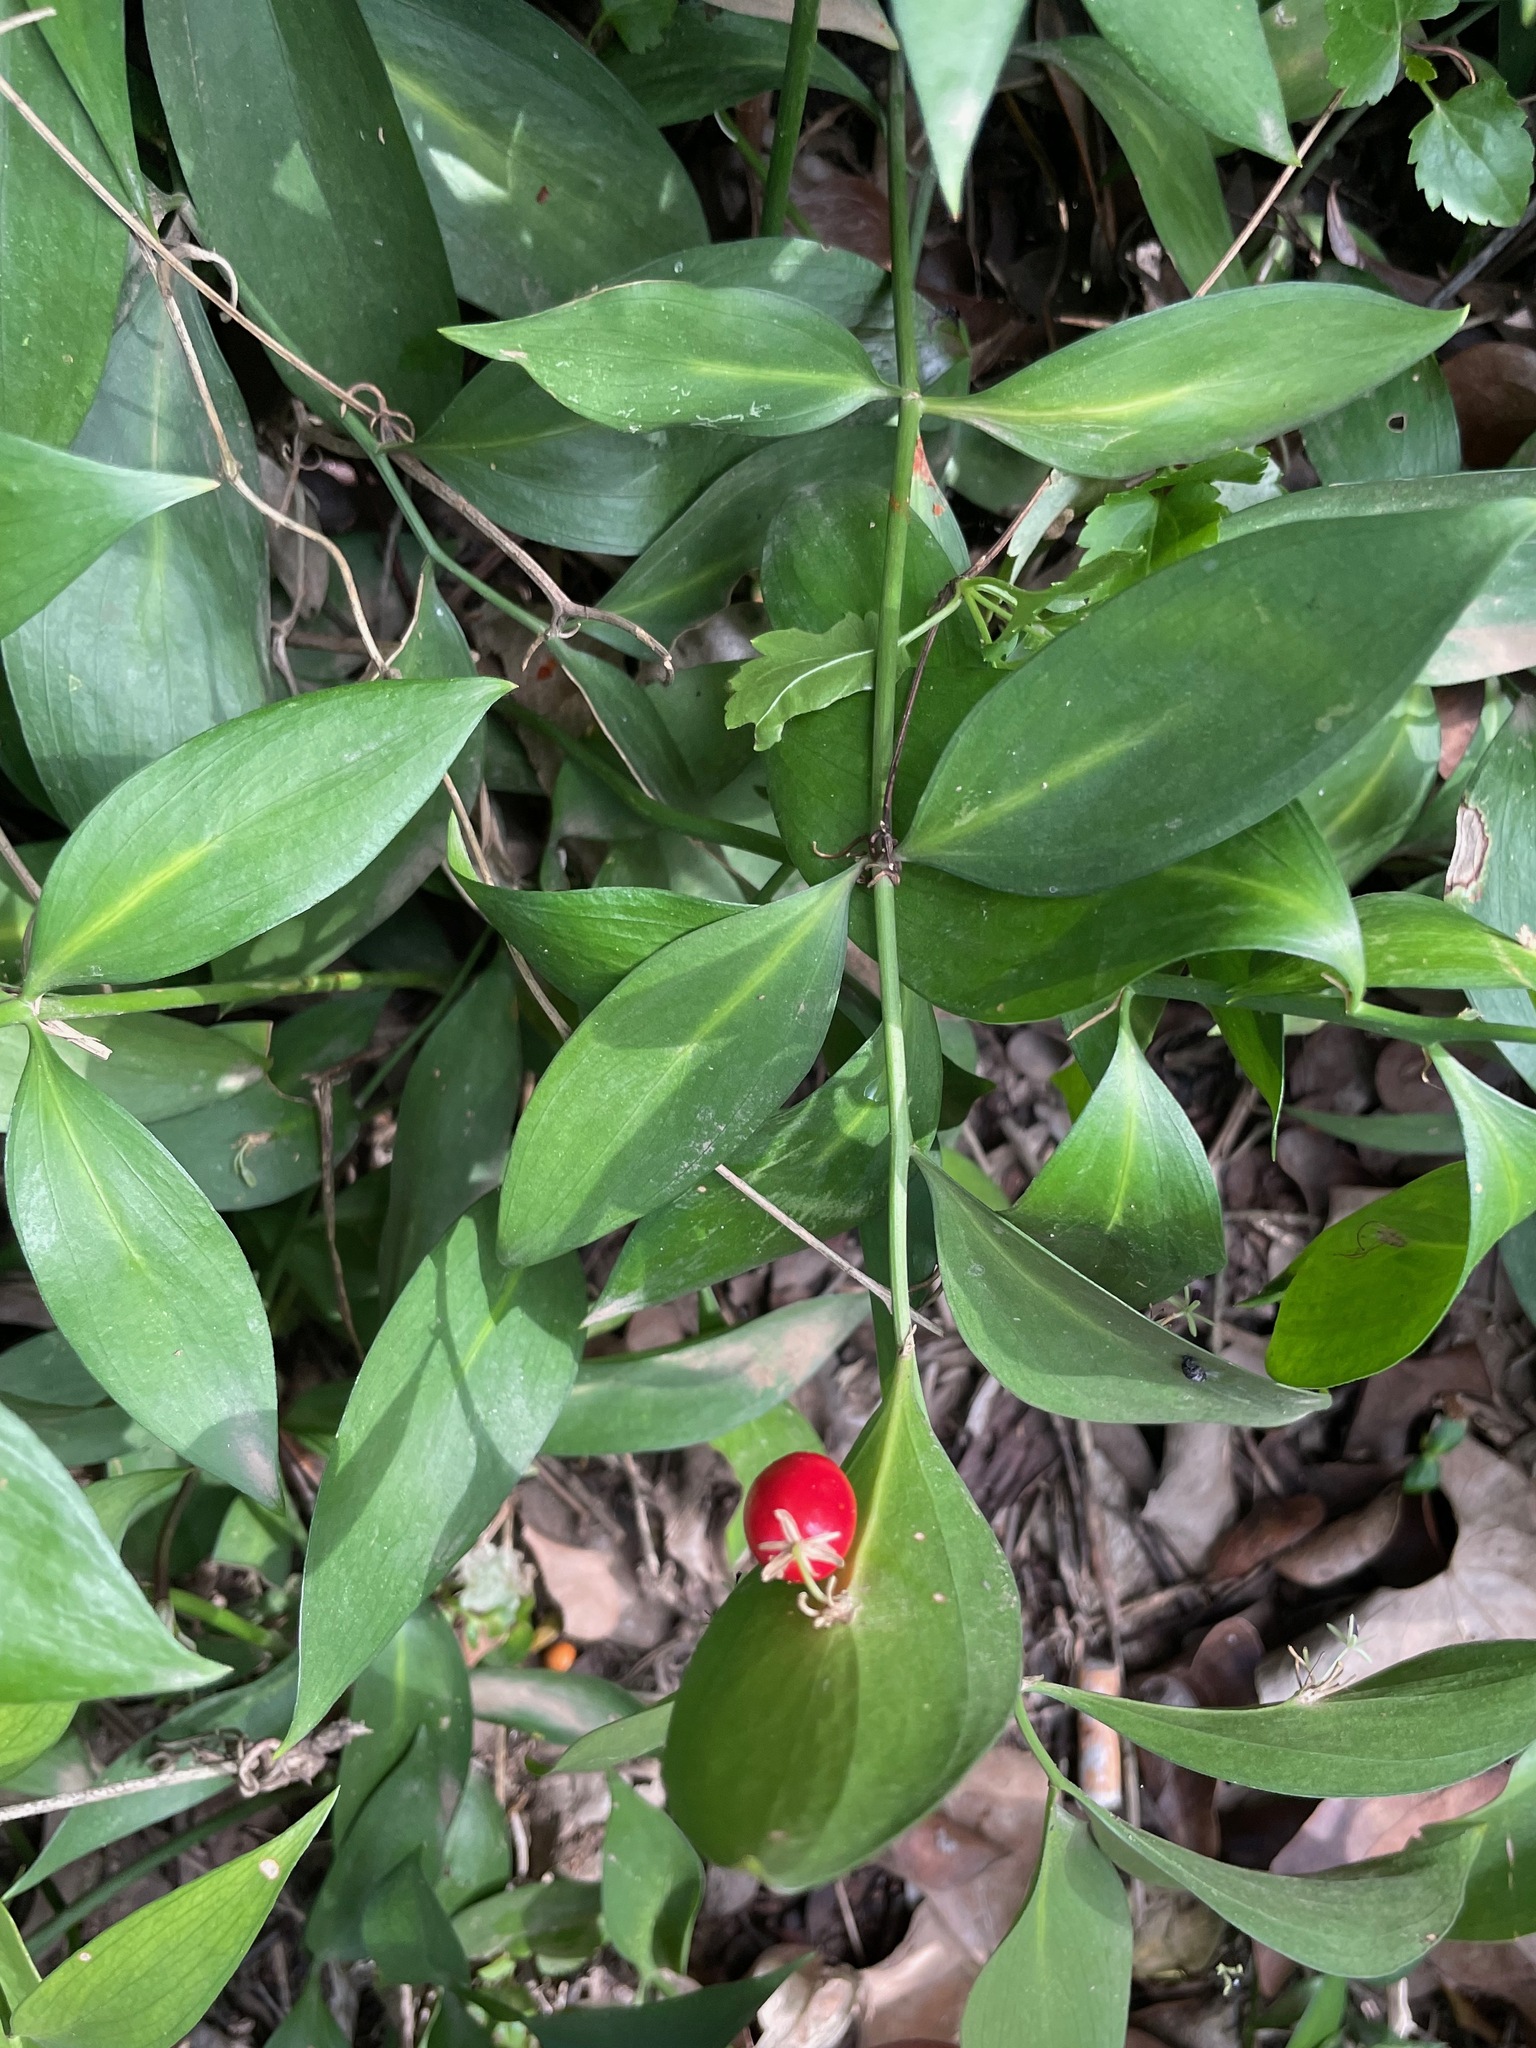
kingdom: Plantae
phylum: Tracheophyta
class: Liliopsida
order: Asparagales
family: Asparagaceae
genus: Ruscus
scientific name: Ruscus hypophyllum
